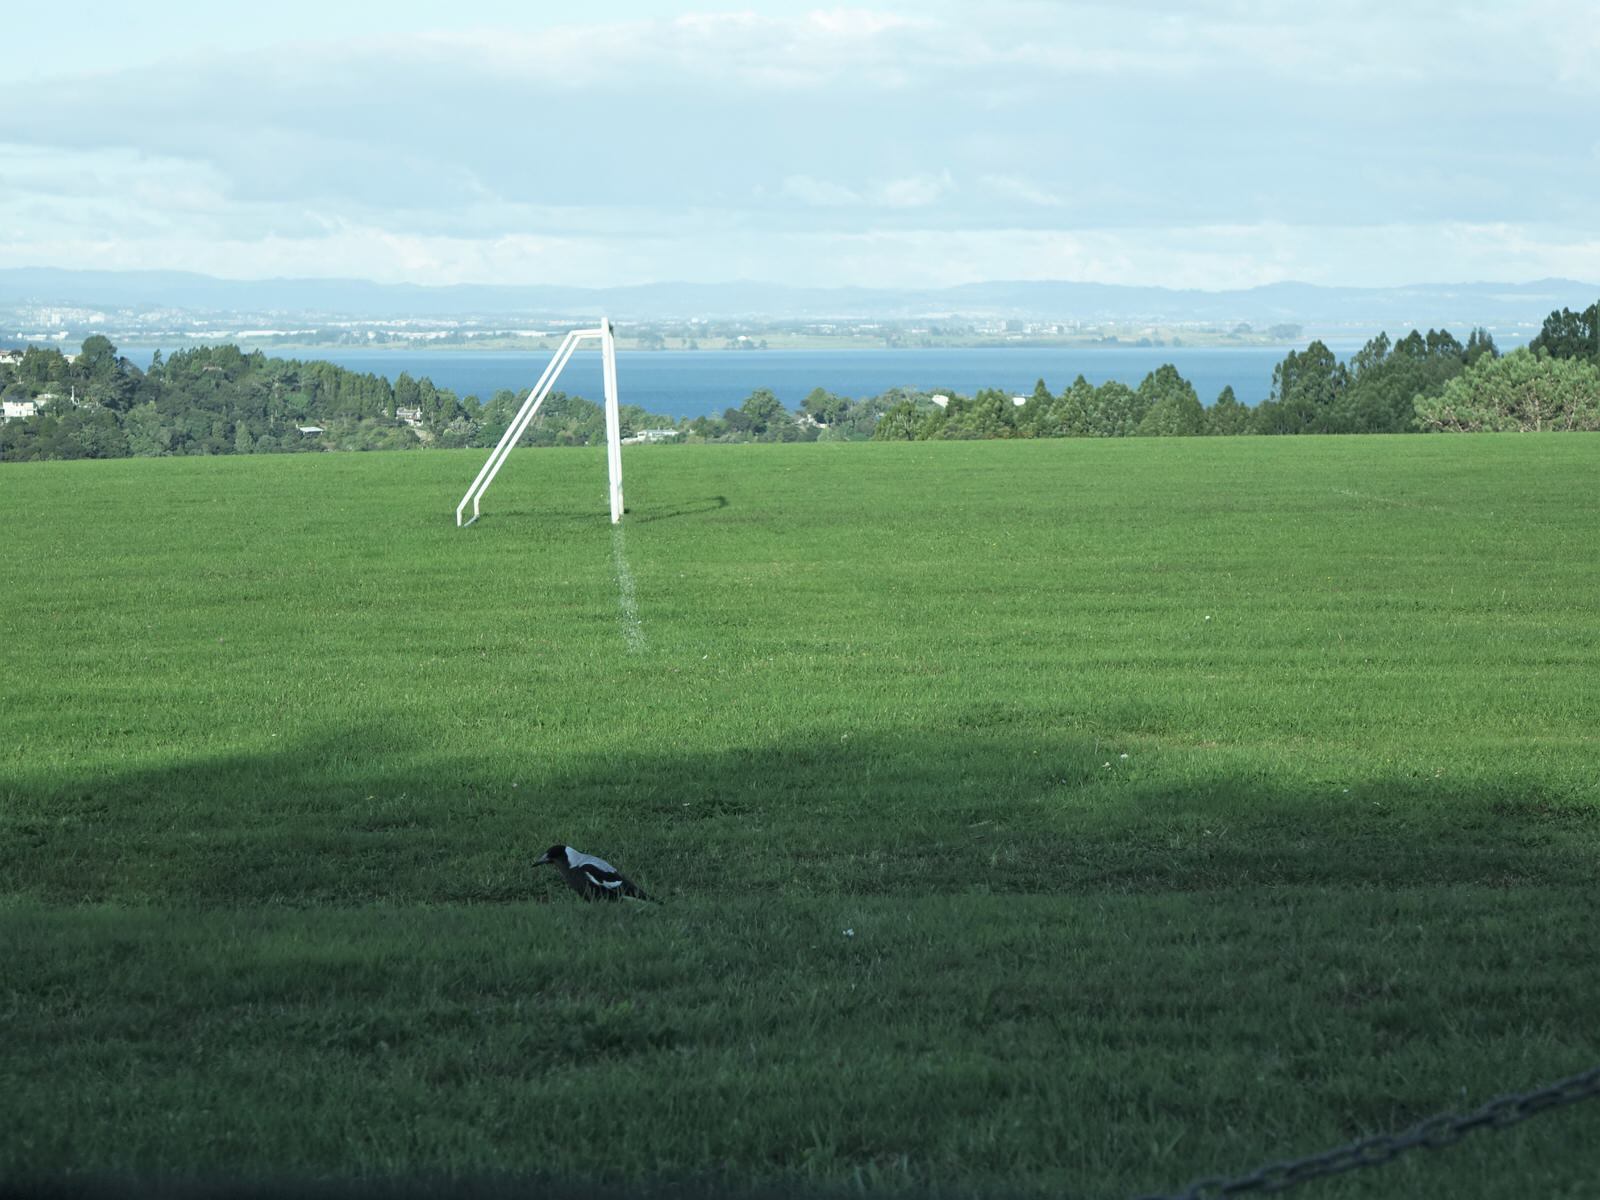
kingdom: Animalia
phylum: Chordata
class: Aves
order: Passeriformes
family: Cracticidae
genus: Gymnorhina
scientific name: Gymnorhina tibicen
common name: Australian magpie
